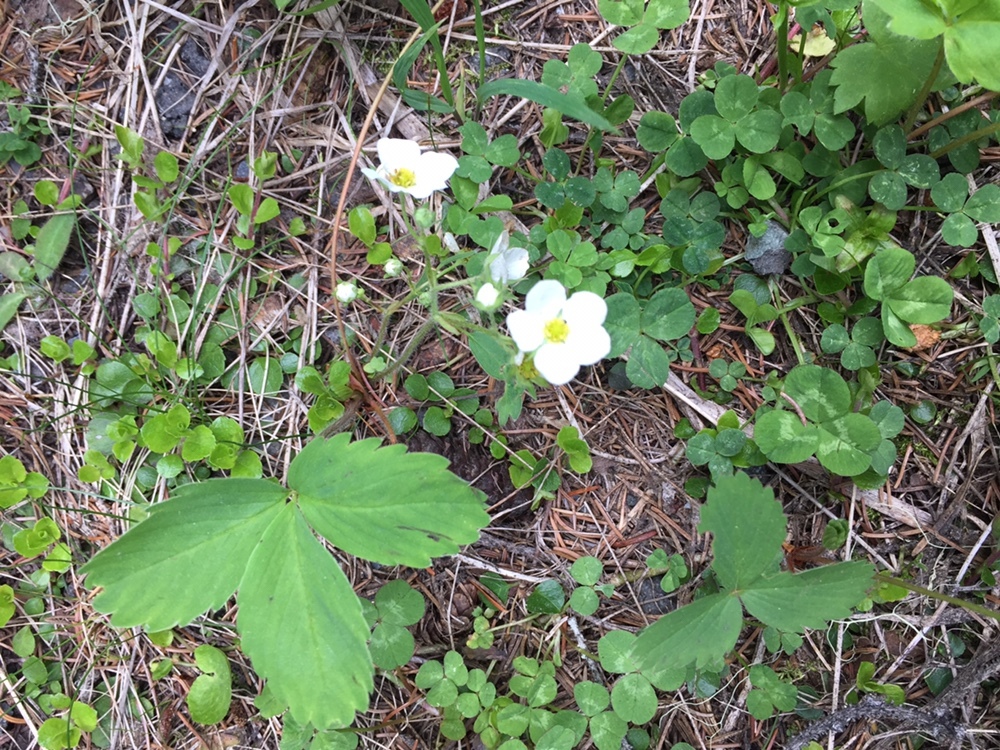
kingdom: Plantae
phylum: Tracheophyta
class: Magnoliopsida
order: Rosales
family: Rosaceae
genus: Fragaria
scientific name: Fragaria virginiana
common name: Thickleaved wild strawberry
